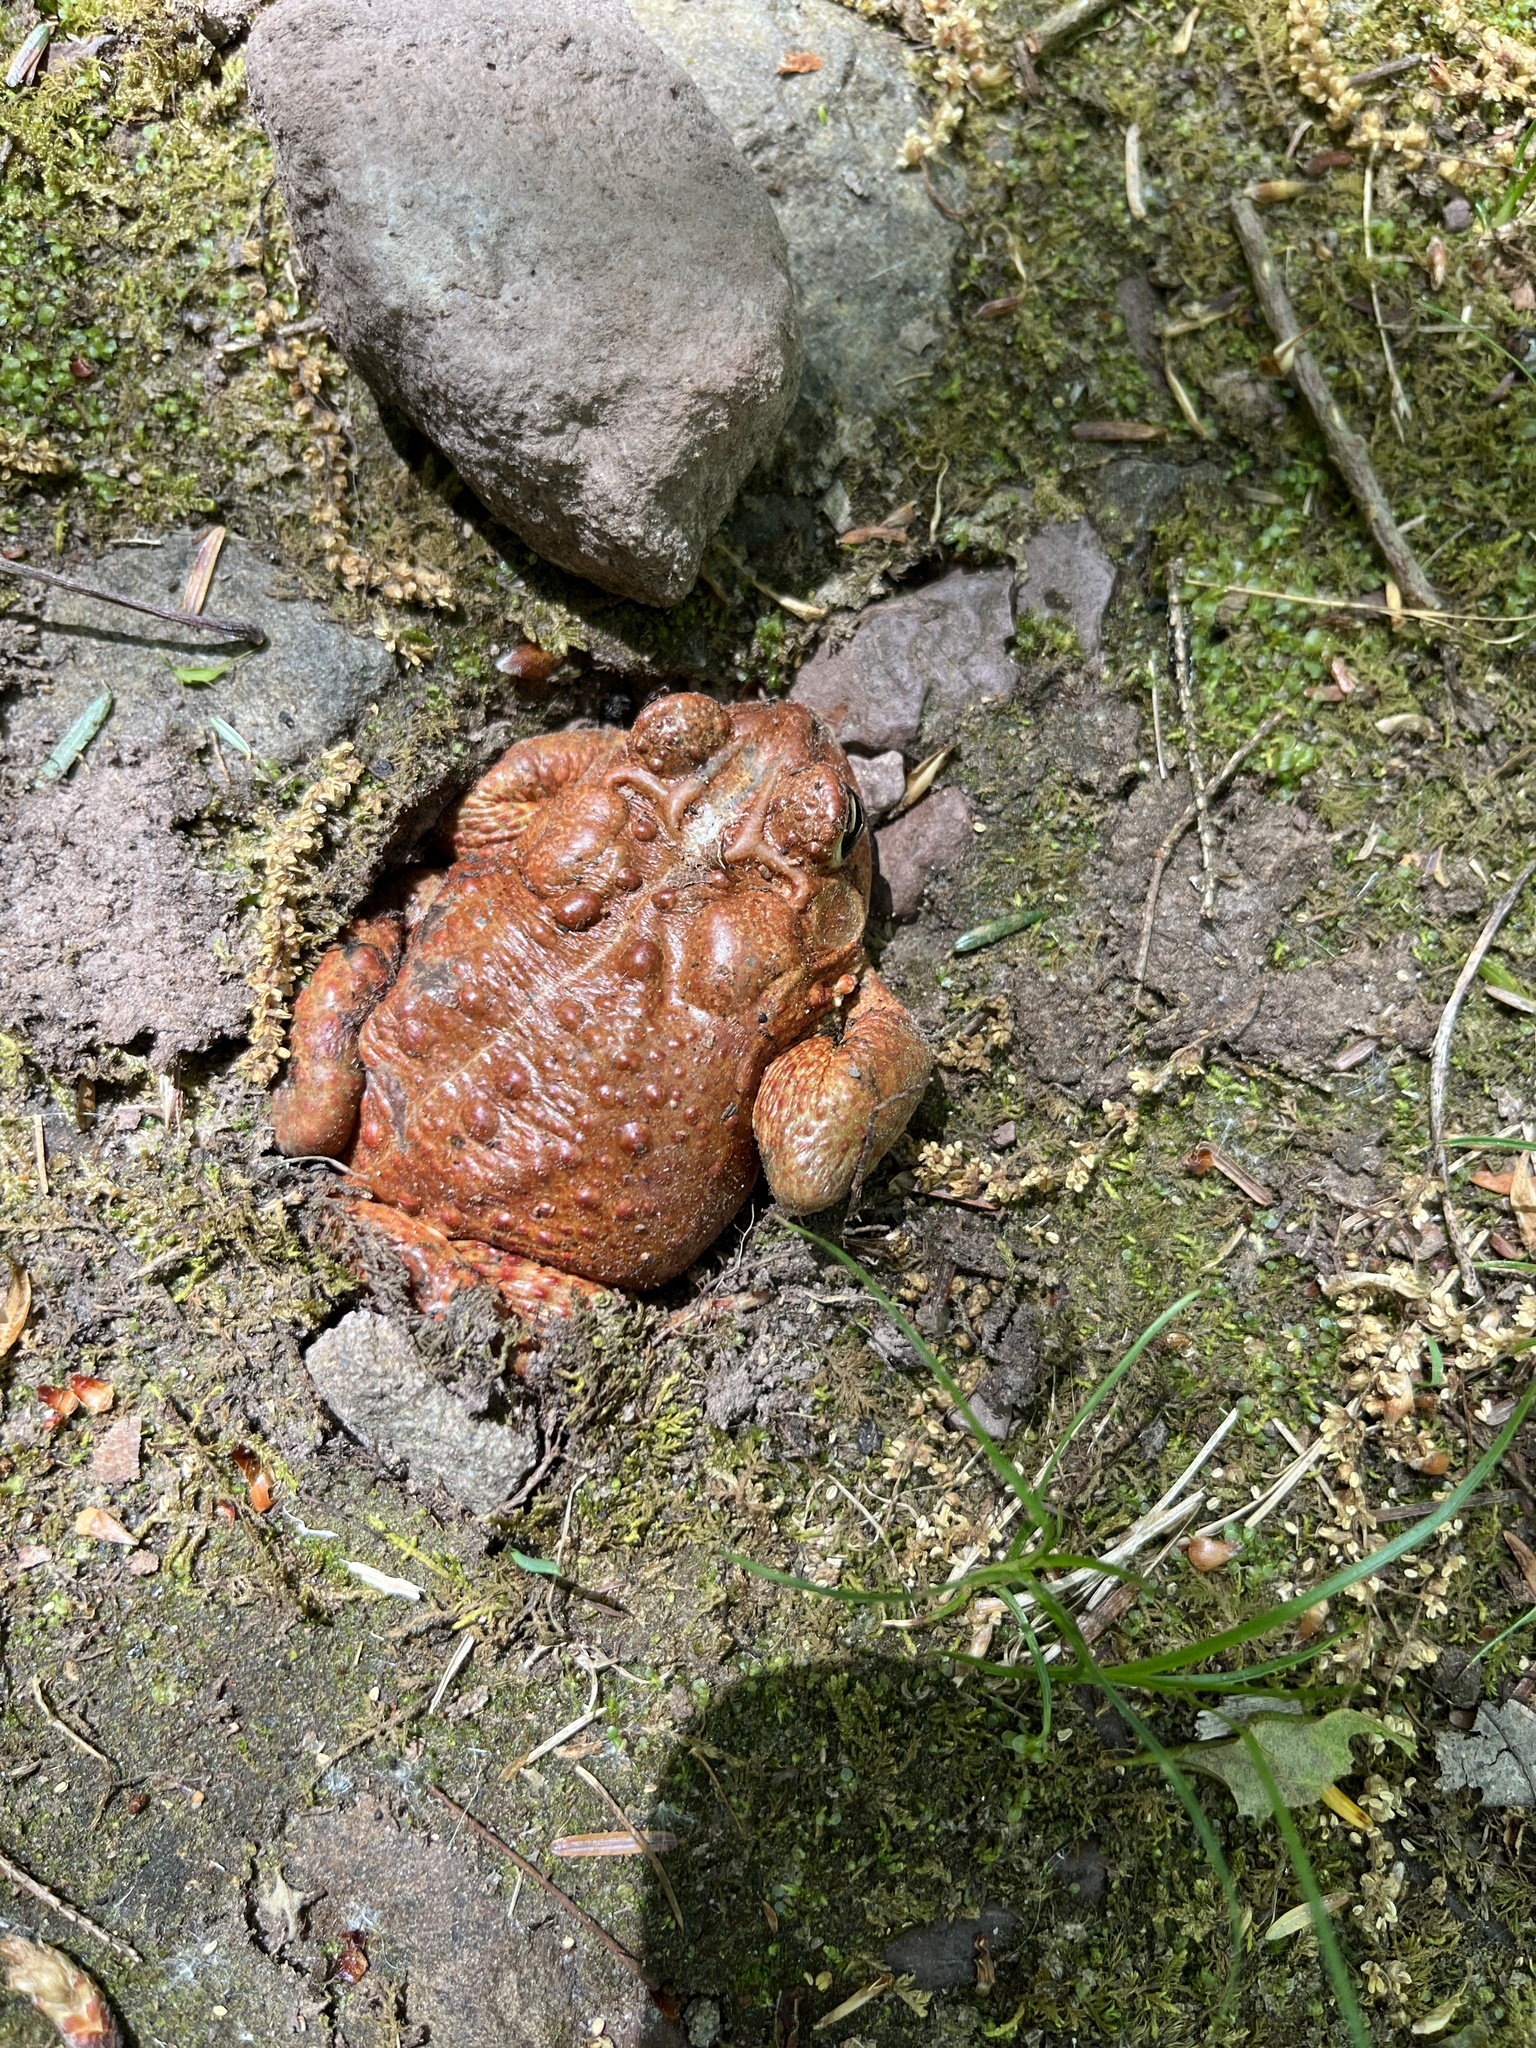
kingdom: Animalia
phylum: Chordata
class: Amphibia
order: Anura
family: Bufonidae
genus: Anaxyrus
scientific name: Anaxyrus americanus
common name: American toad
